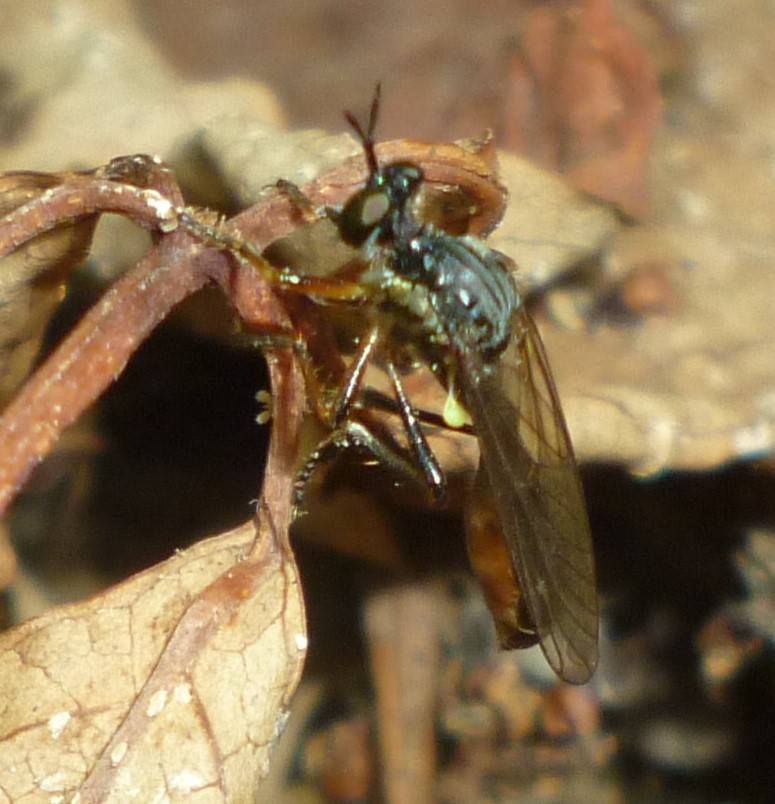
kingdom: Animalia
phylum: Arthropoda
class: Insecta
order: Diptera
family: Asilidae
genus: Dioctria
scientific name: Dioctria hyalipennis
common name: Stripe-legged robberfly
